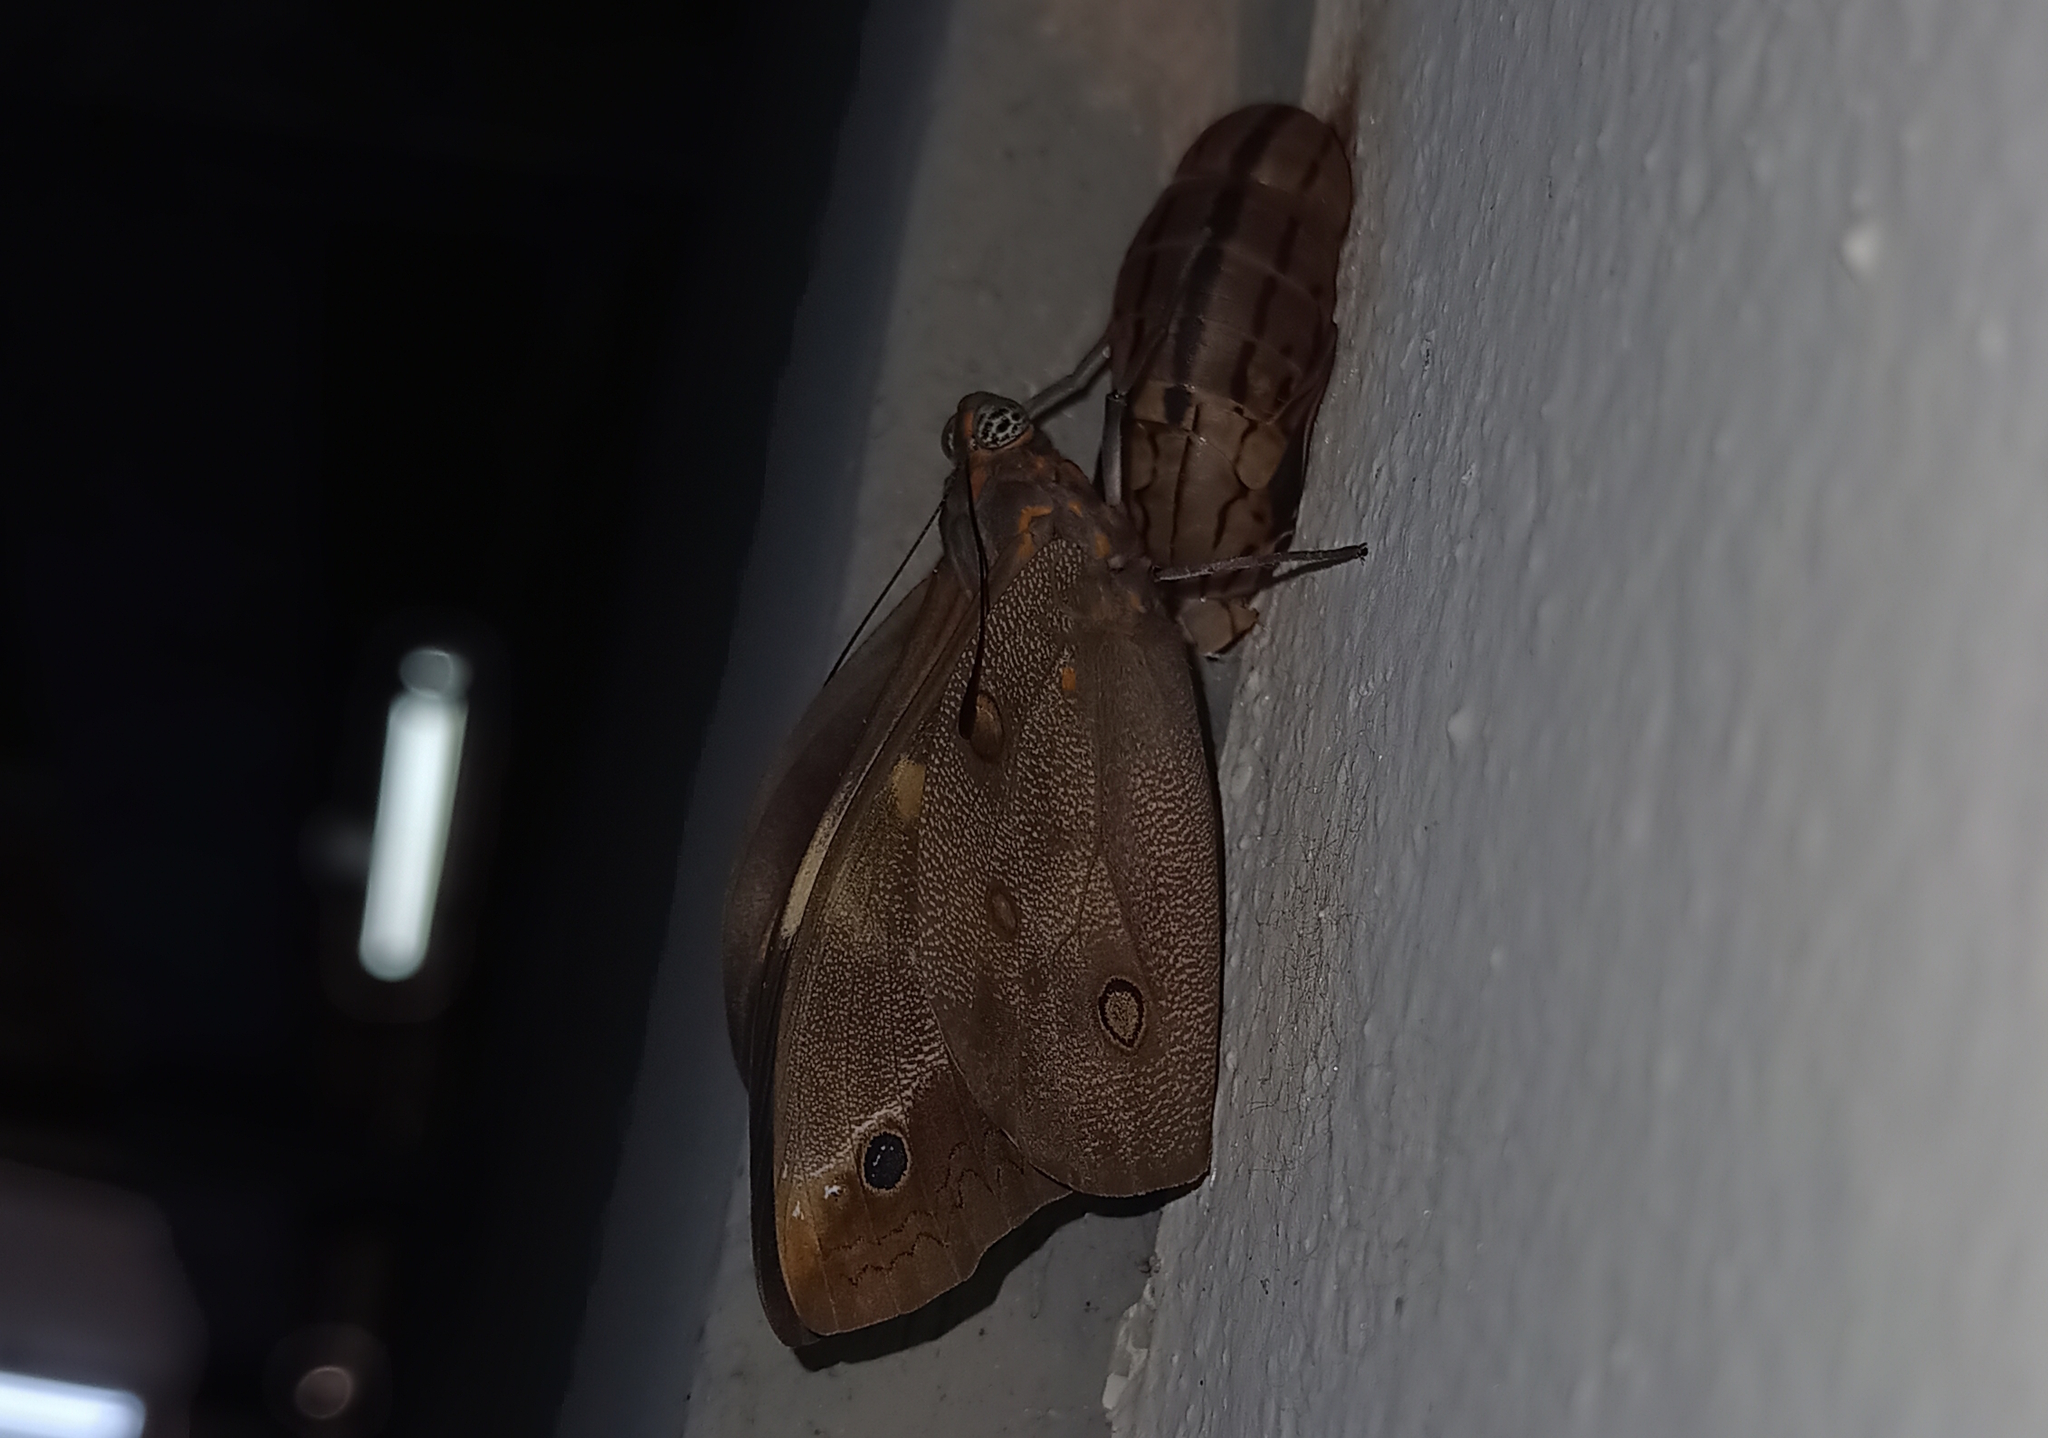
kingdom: Animalia
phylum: Arthropoda
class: Insecta
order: Lepidoptera
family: Nymphalidae
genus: Brassolis
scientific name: Brassolis sophorae
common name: Coconut caterpillar
